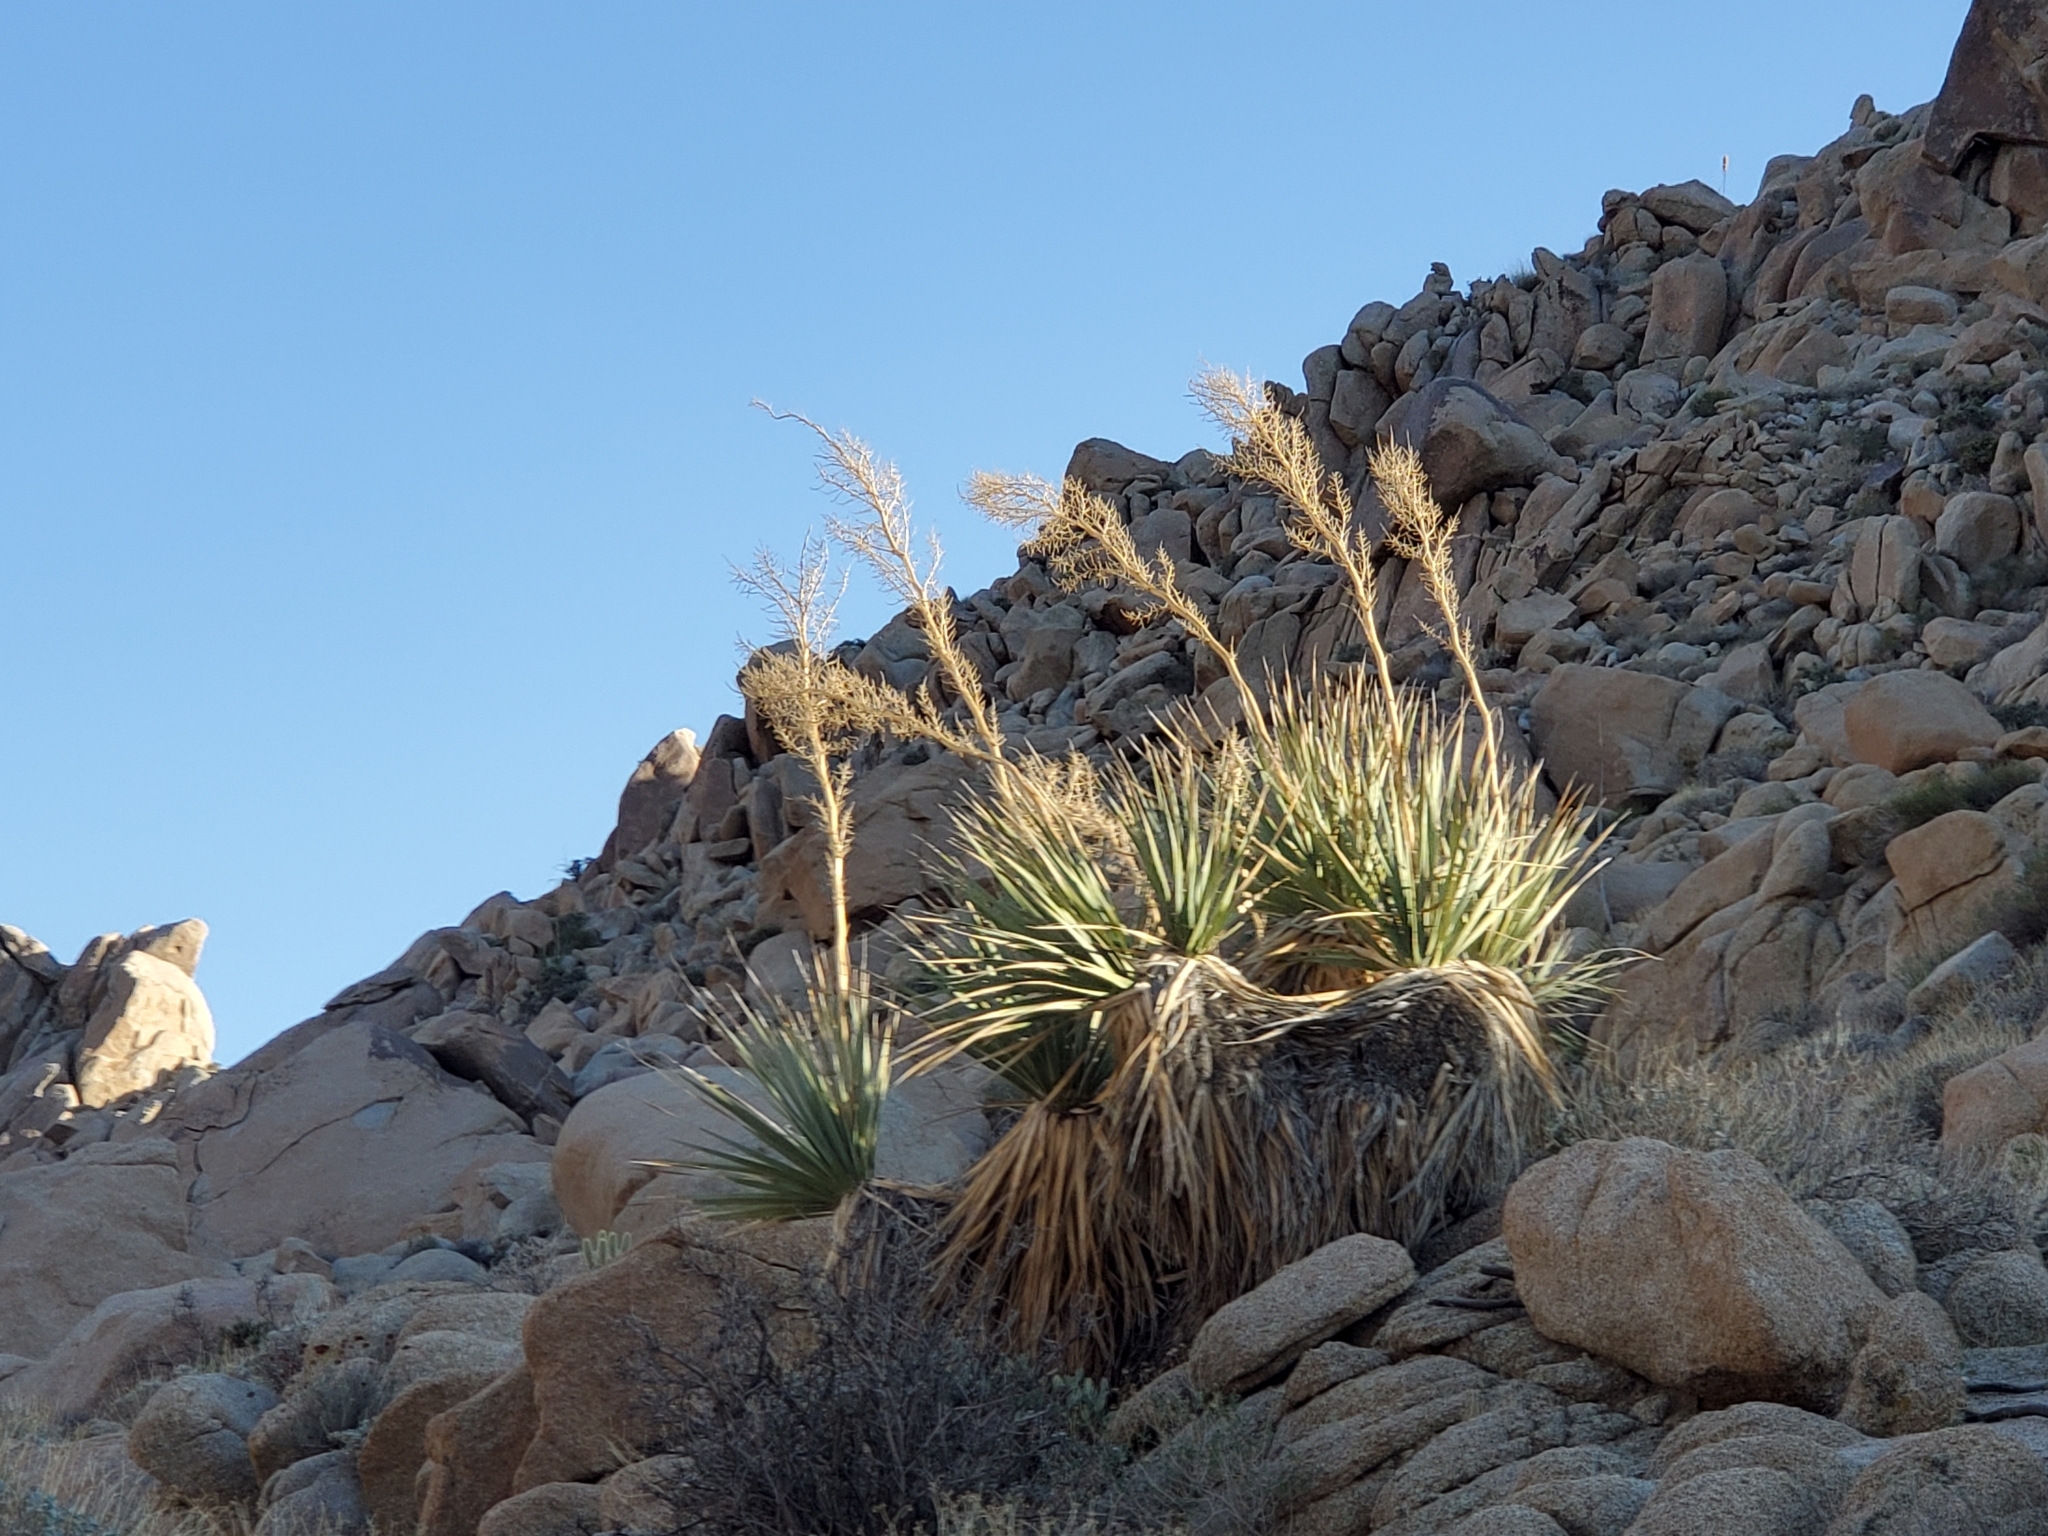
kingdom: Plantae
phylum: Tracheophyta
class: Liliopsida
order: Asparagales
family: Asparagaceae
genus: Nolina
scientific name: Nolina bigelovii
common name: Bigelow bear-grass
